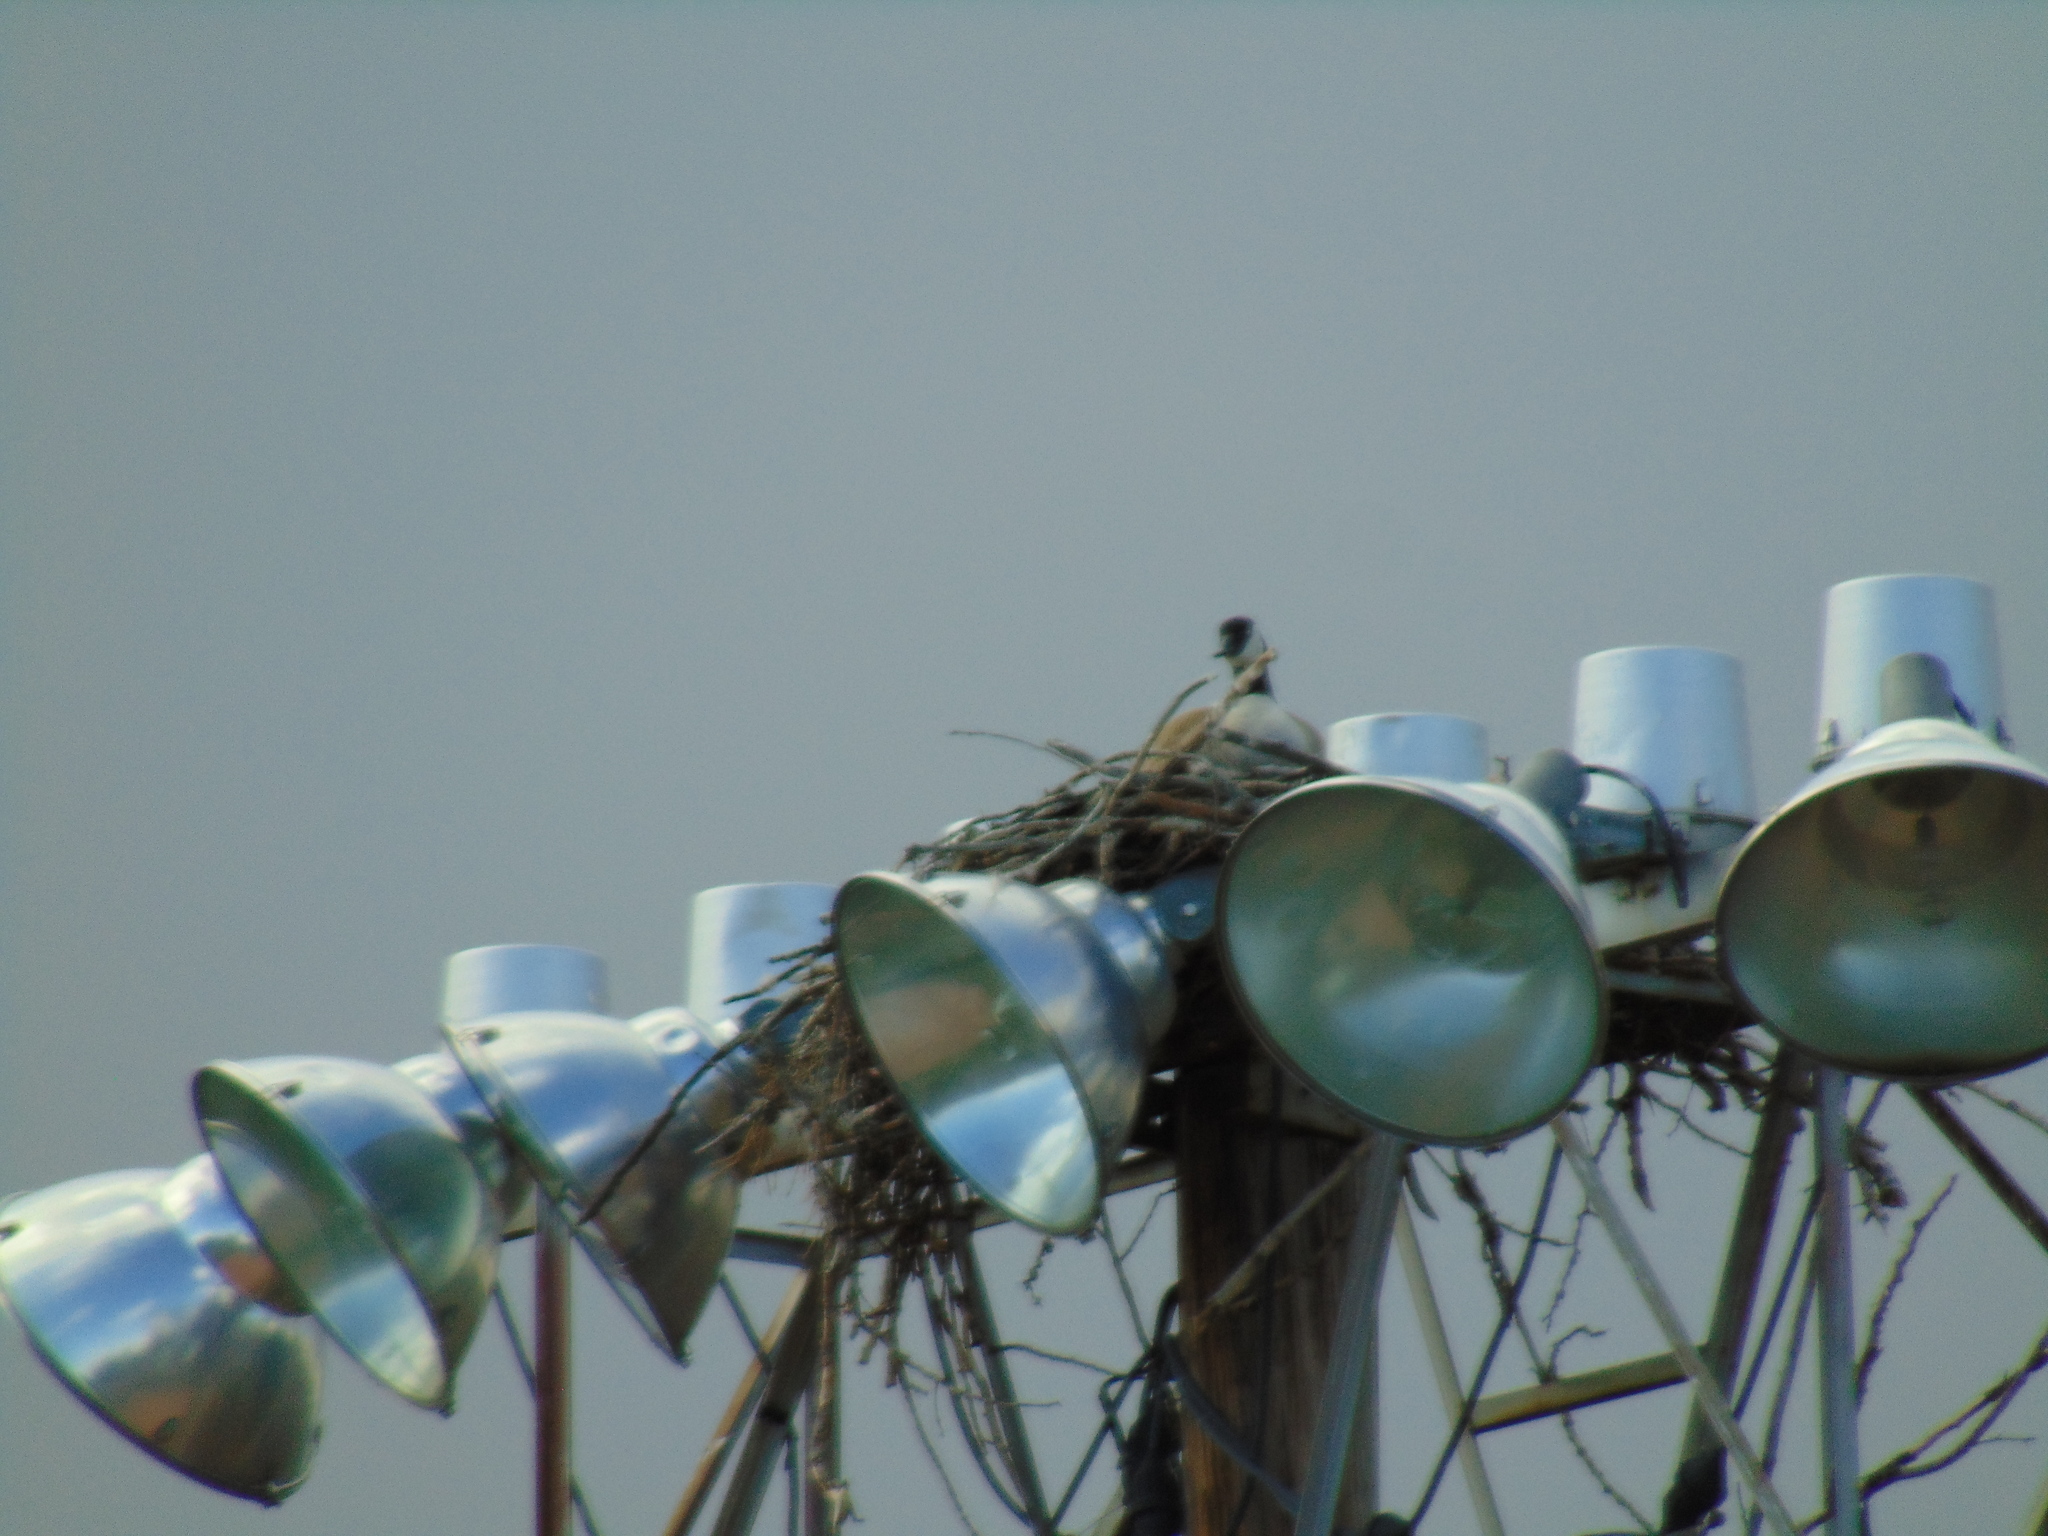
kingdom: Animalia
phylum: Chordata
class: Aves
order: Anseriformes
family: Anatidae
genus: Branta
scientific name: Branta canadensis
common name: Canada goose
